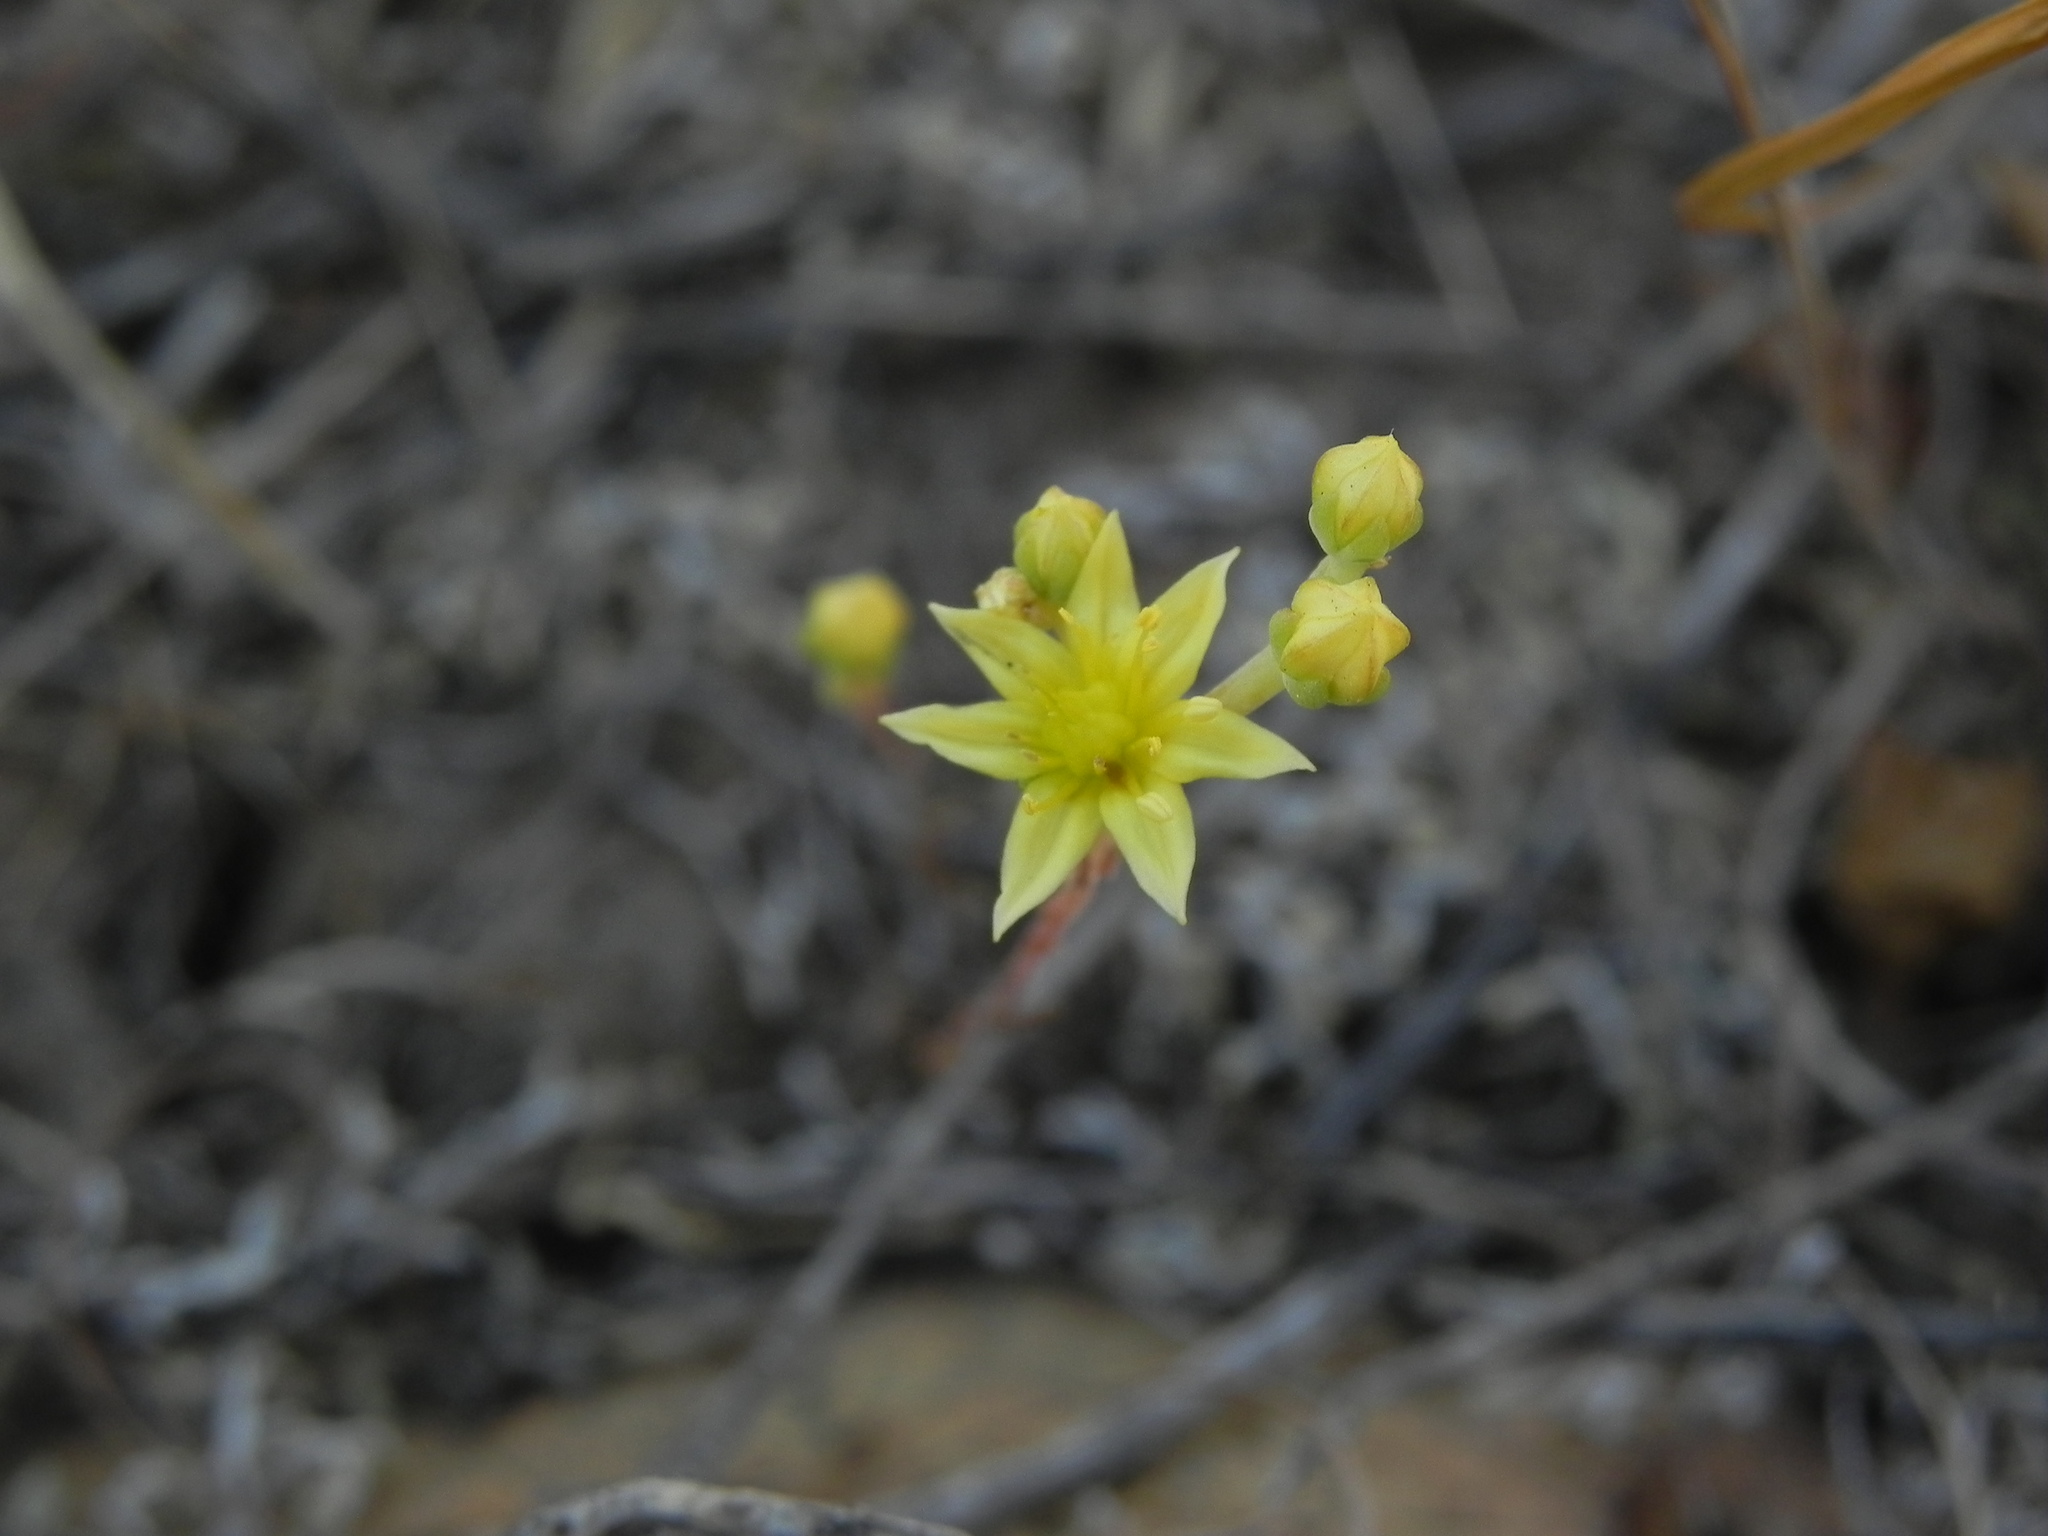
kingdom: Plantae
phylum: Tracheophyta
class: Magnoliopsida
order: Saxifragales
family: Crassulaceae
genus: Dudleya
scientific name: Dudleya variegata
